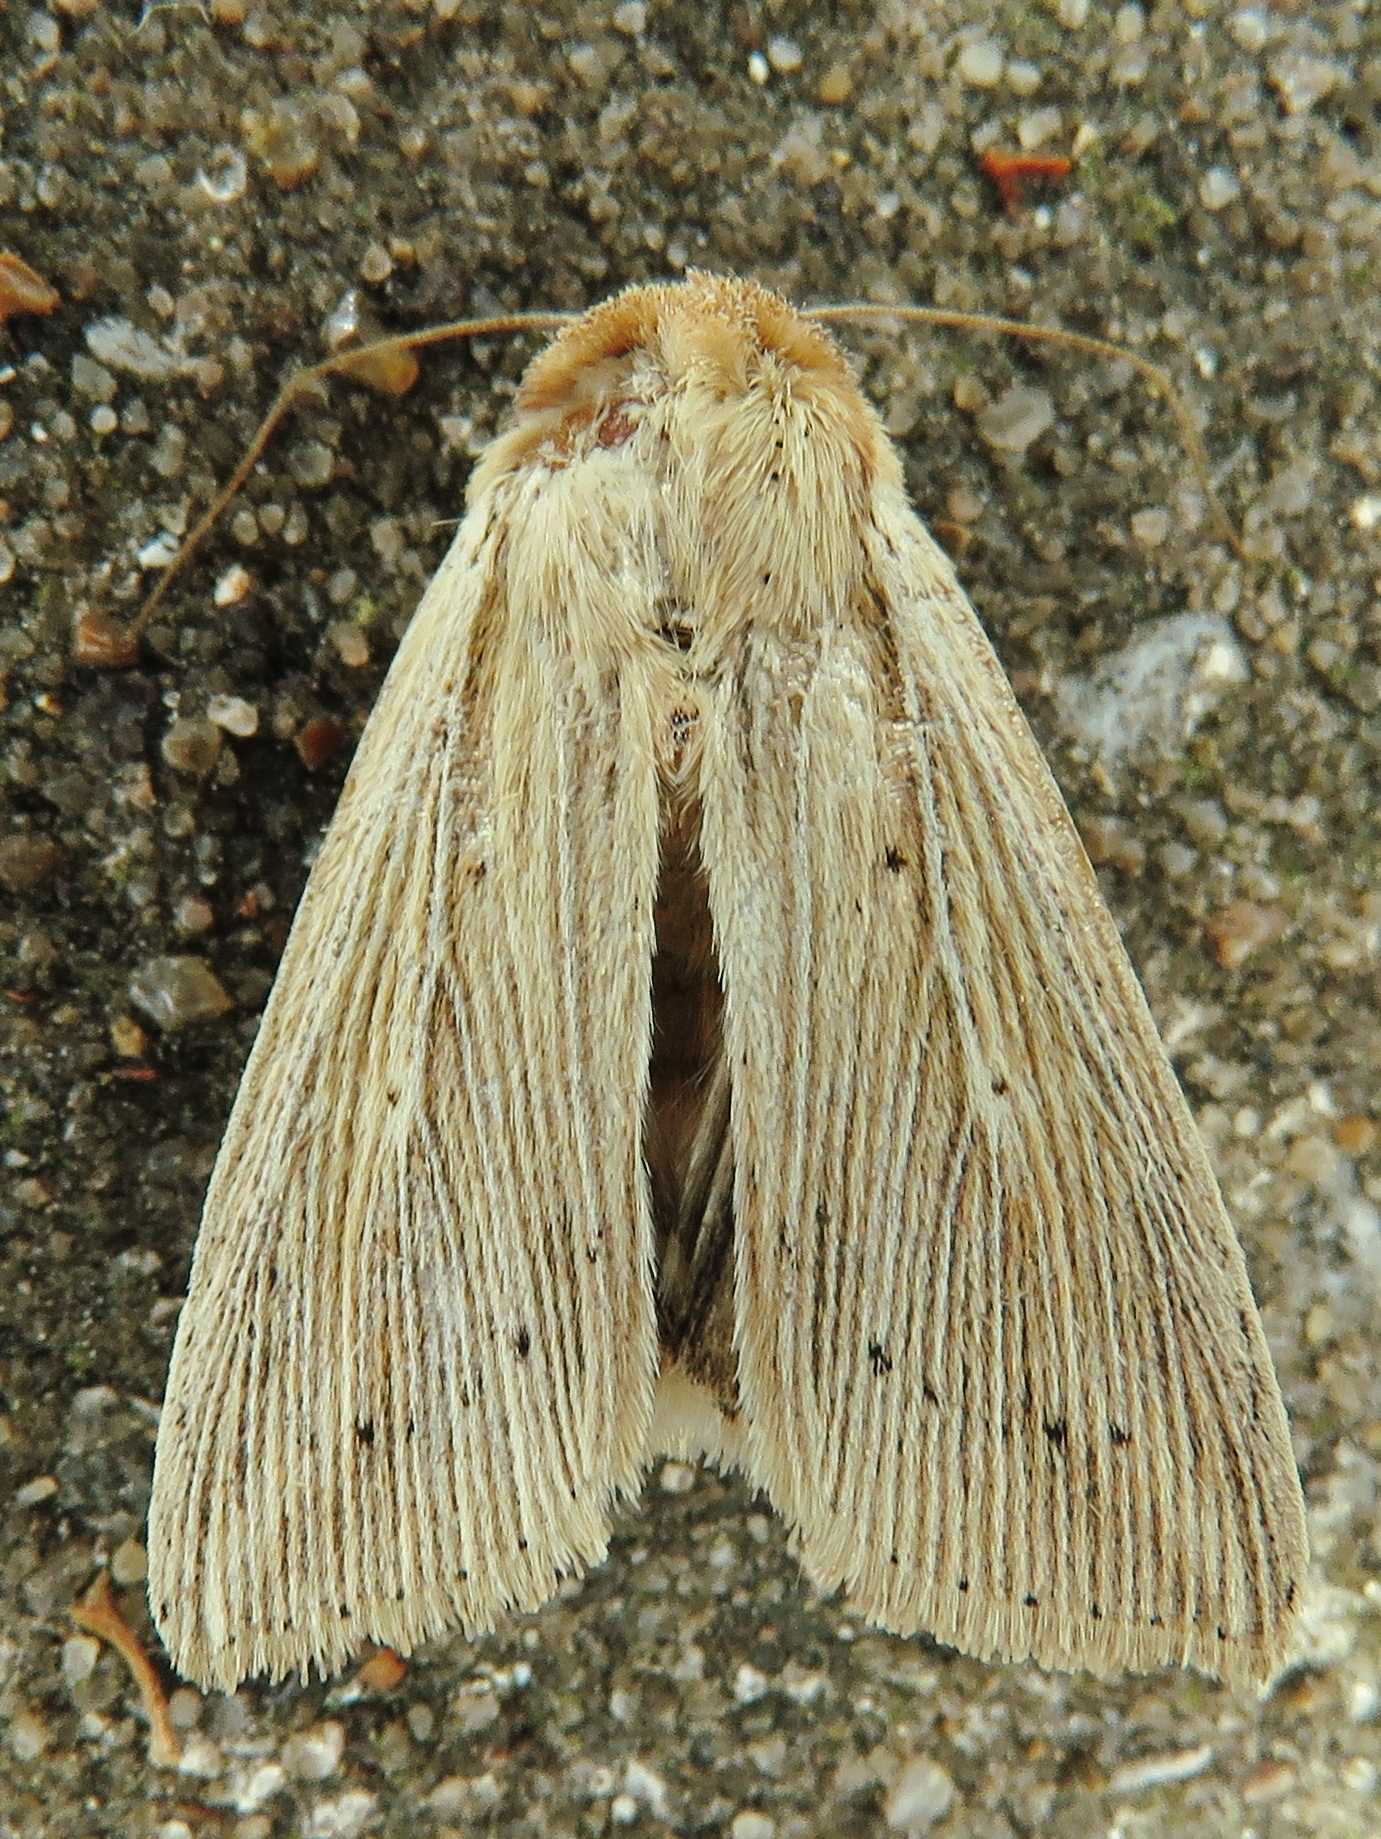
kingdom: Animalia
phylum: Arthropoda
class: Insecta
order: Lepidoptera
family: Noctuidae
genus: Leucania
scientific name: Leucania adjuta
